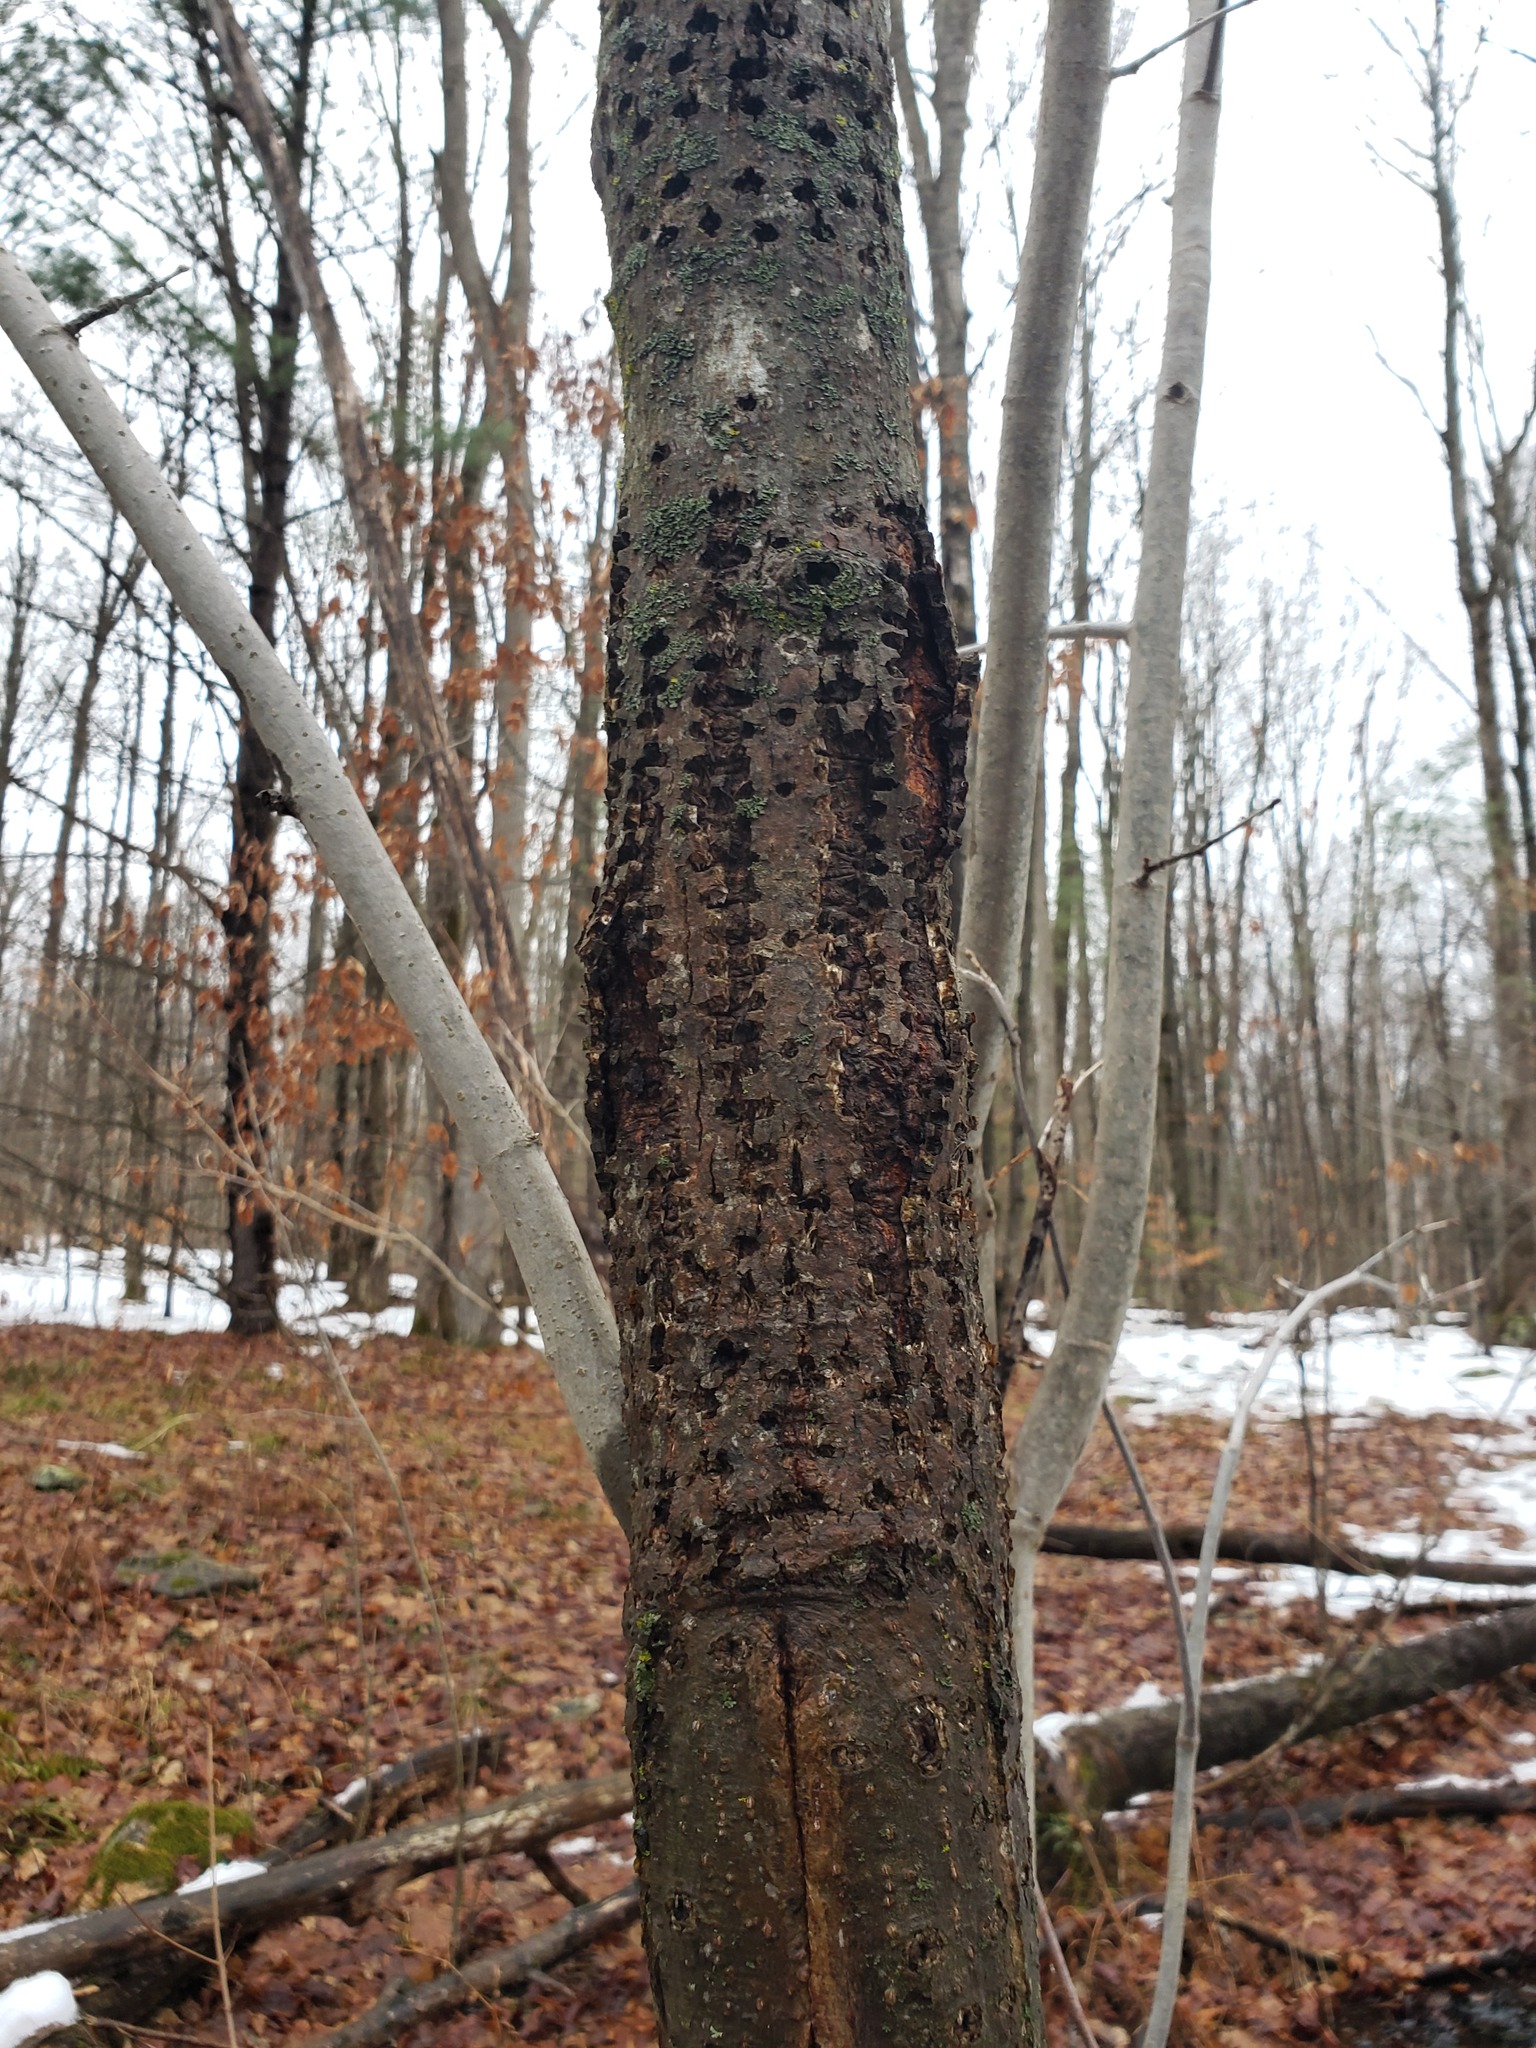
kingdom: Animalia
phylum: Chordata
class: Aves
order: Piciformes
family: Picidae
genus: Sphyrapicus
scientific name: Sphyrapicus varius
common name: Yellow-bellied sapsucker
